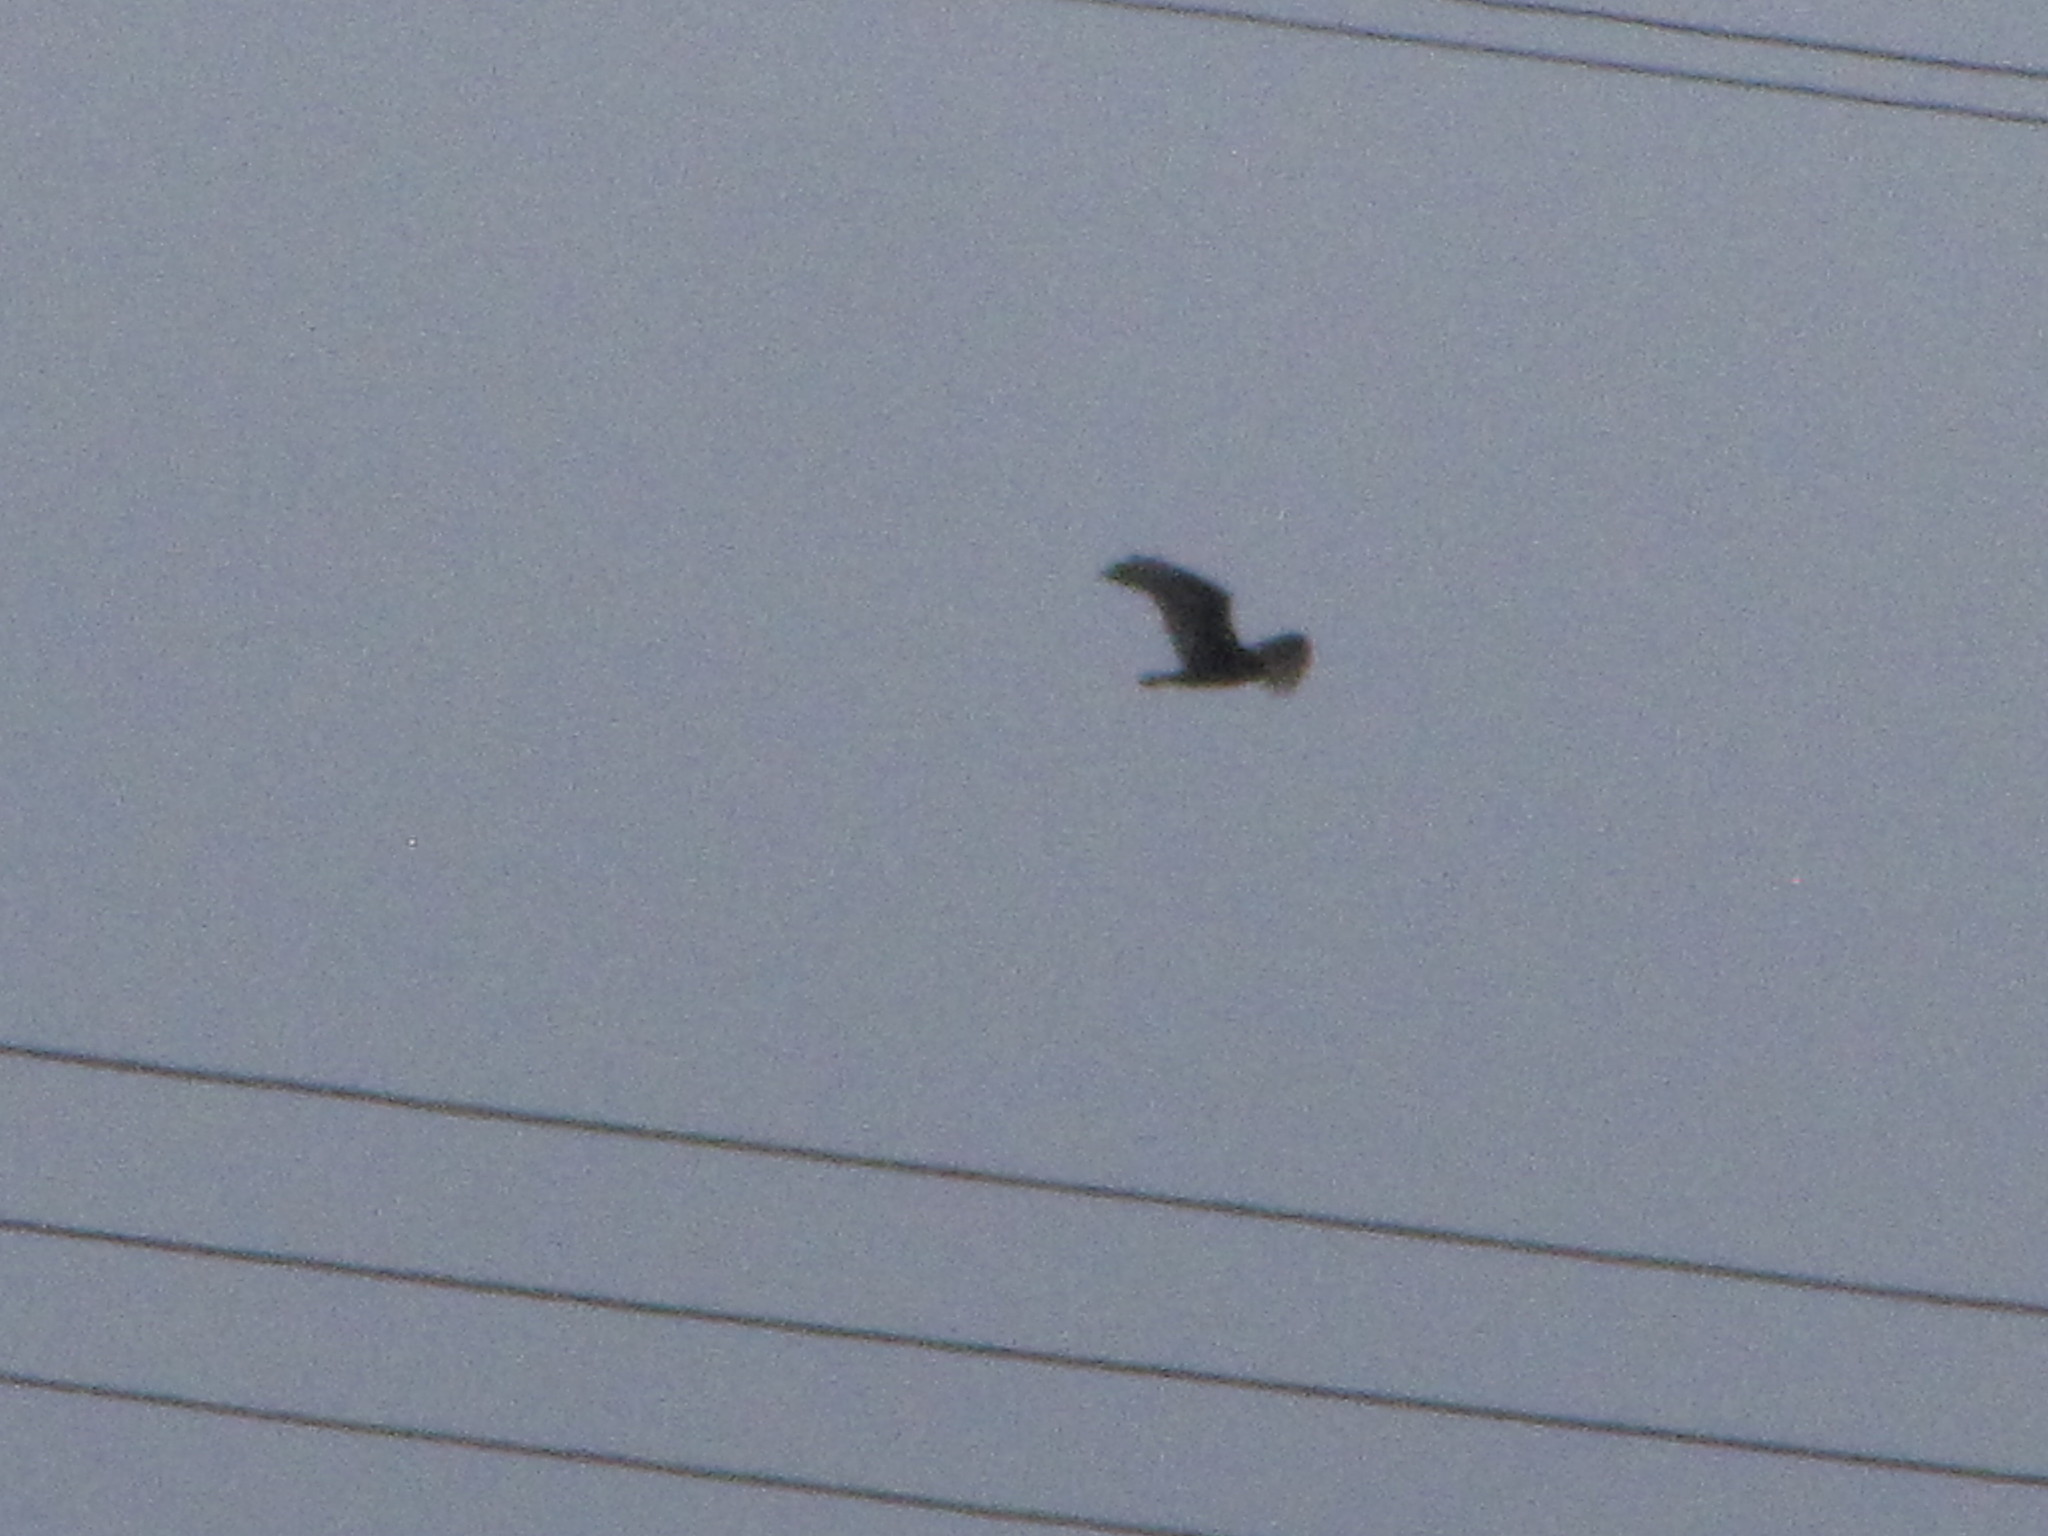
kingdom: Animalia
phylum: Chordata
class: Aves
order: Accipitriformes
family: Cathartidae
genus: Cathartes
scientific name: Cathartes aura
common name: Turkey vulture
